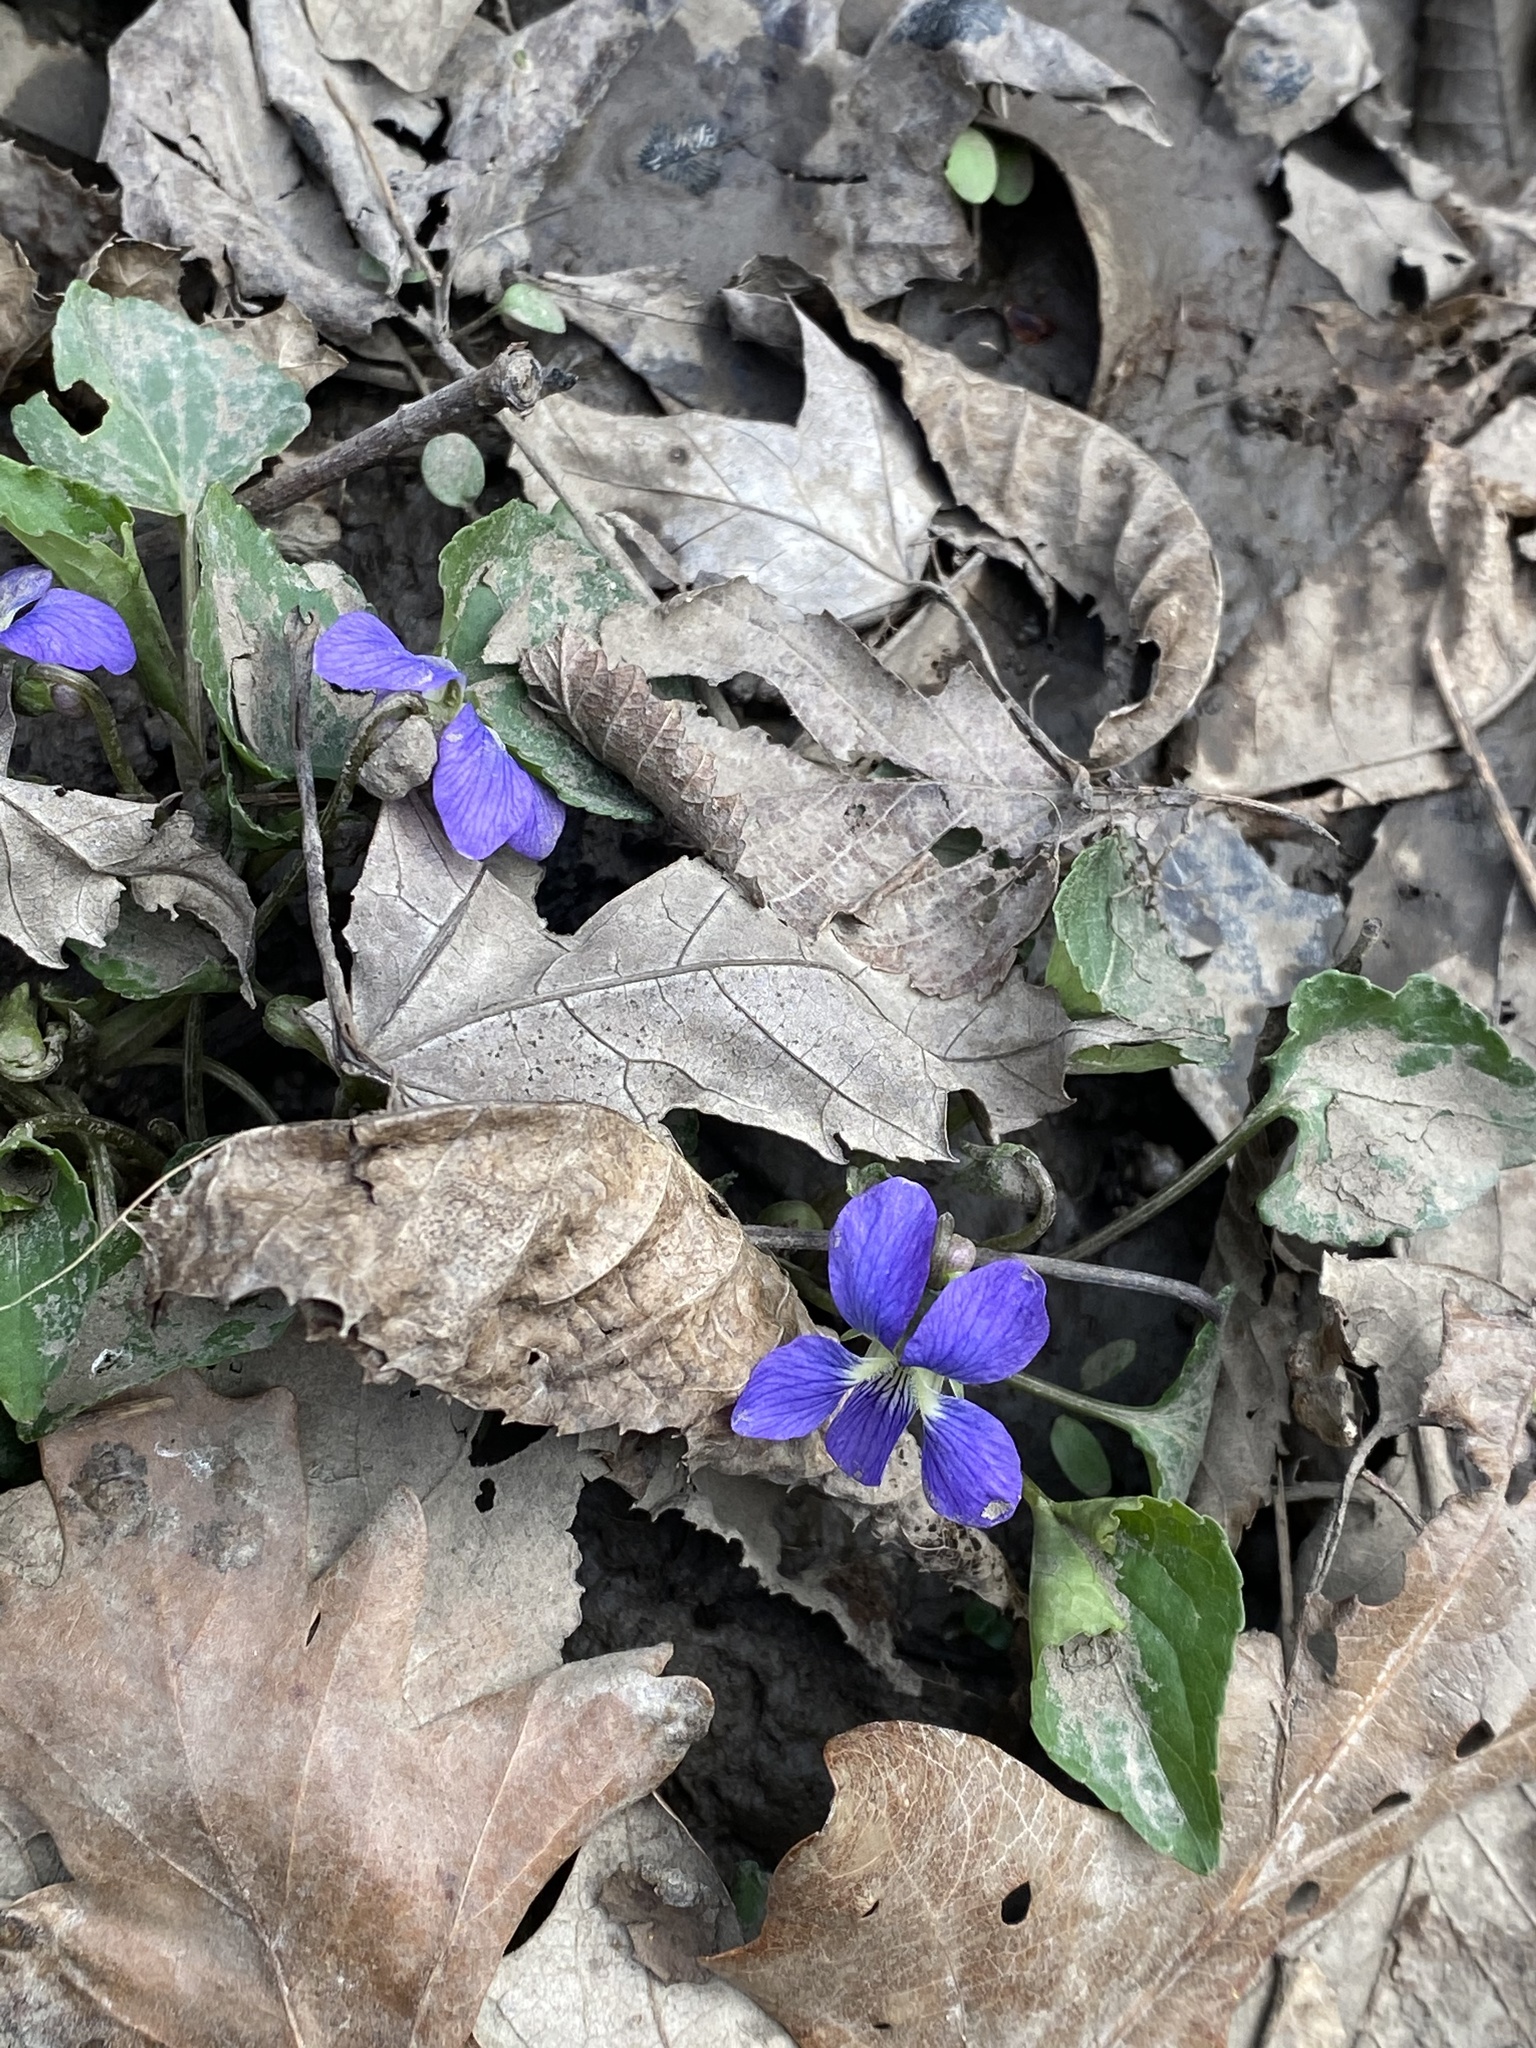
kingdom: Plantae
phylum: Tracheophyta
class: Magnoliopsida
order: Malpighiales
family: Violaceae
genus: Viola
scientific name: Viola sororia
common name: Dooryard violet
